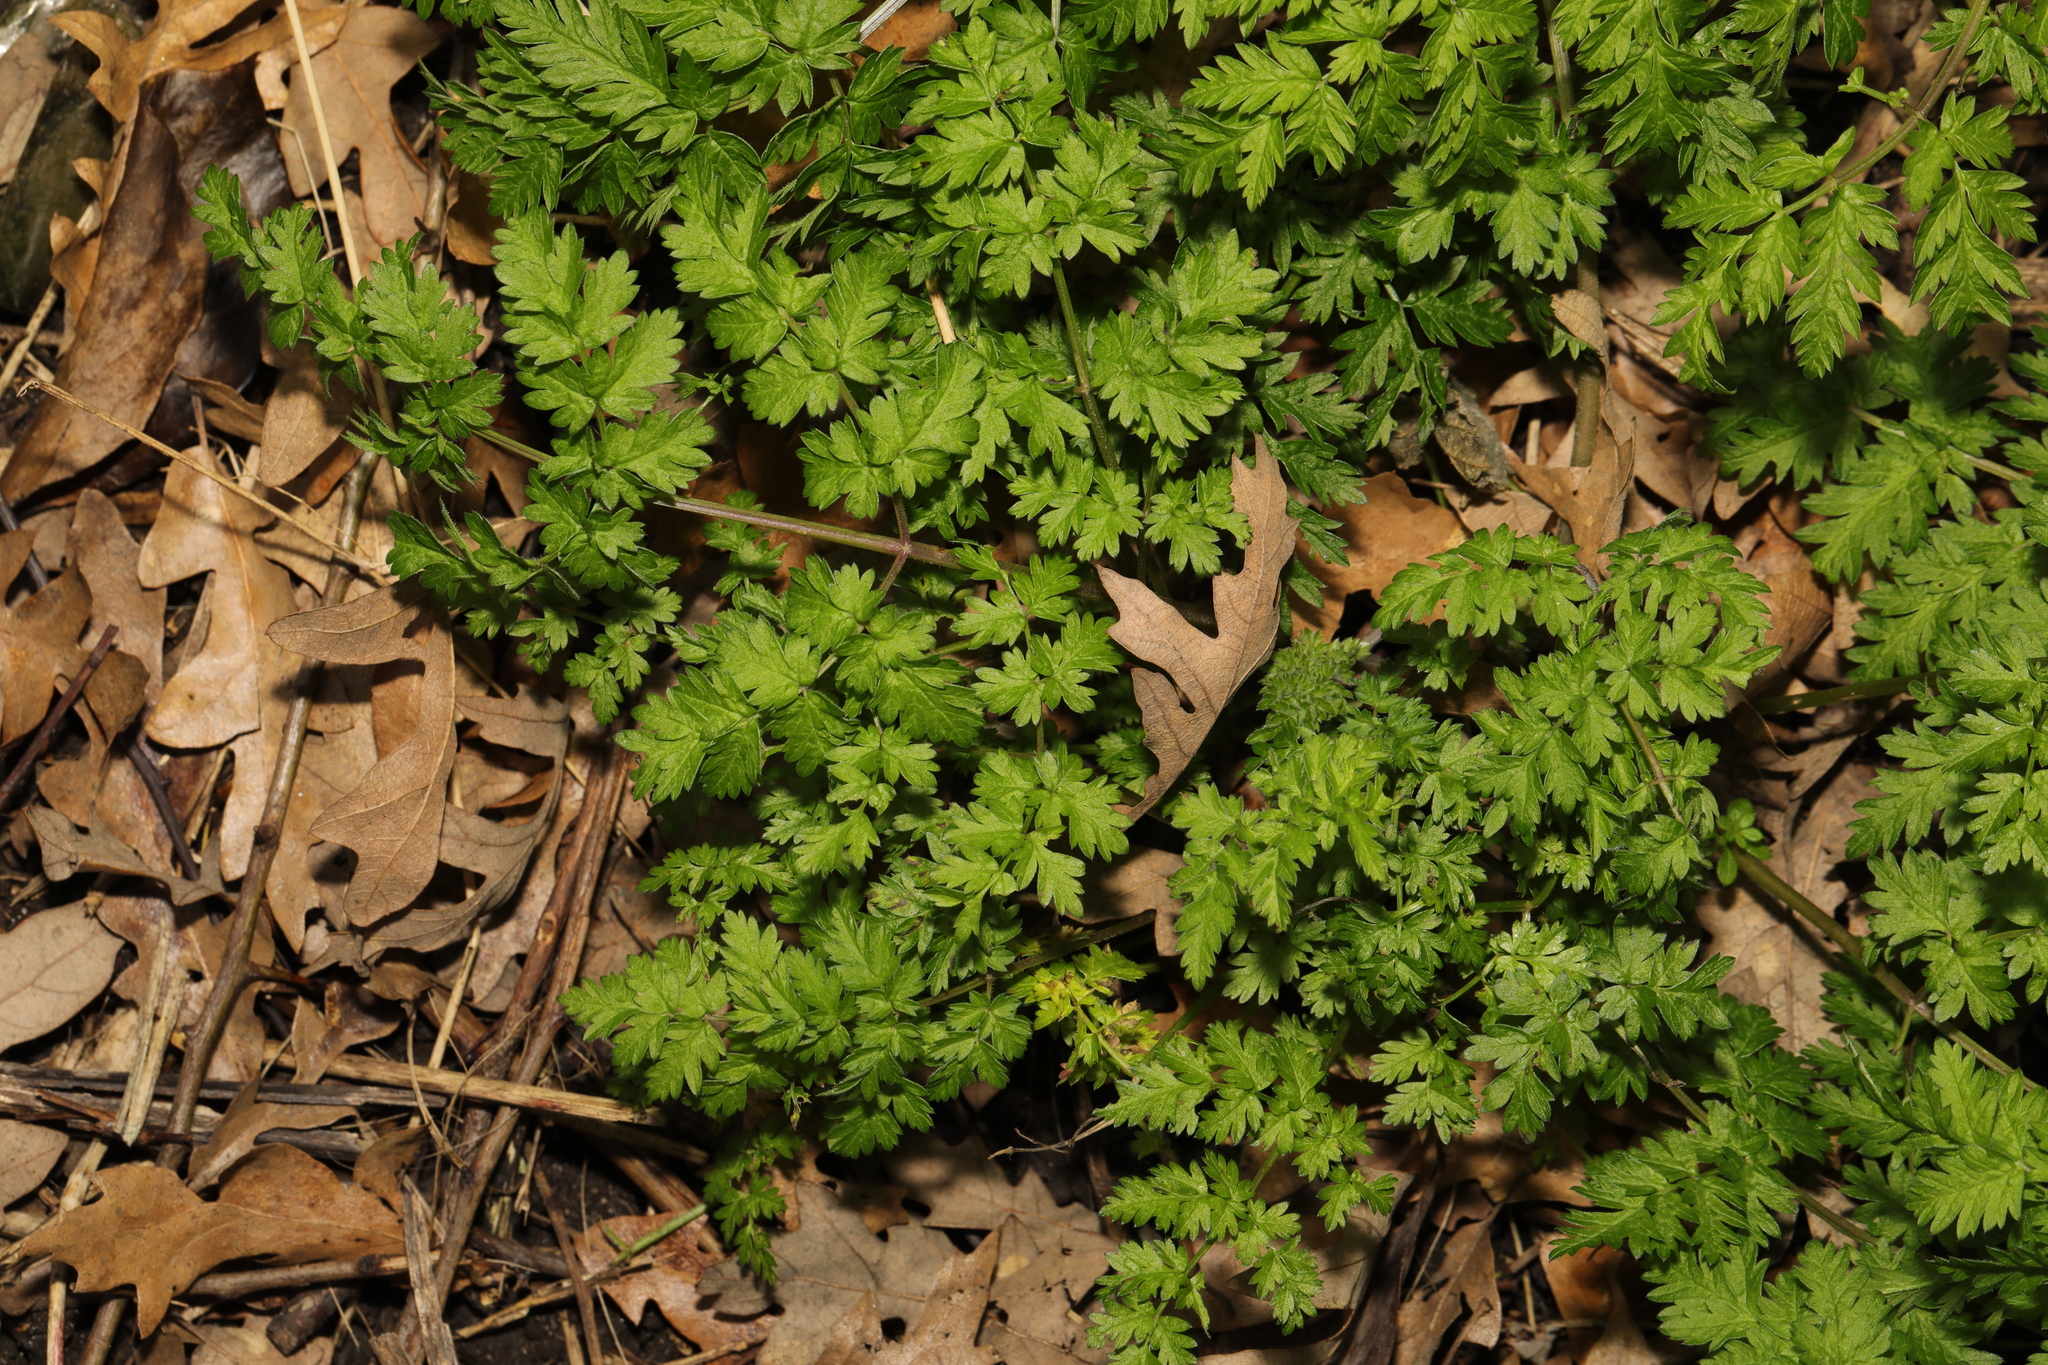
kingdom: Plantae
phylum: Tracheophyta
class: Magnoliopsida
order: Apiales
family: Apiaceae
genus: Anthriscus
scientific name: Anthriscus sylvestris
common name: Cow parsley
